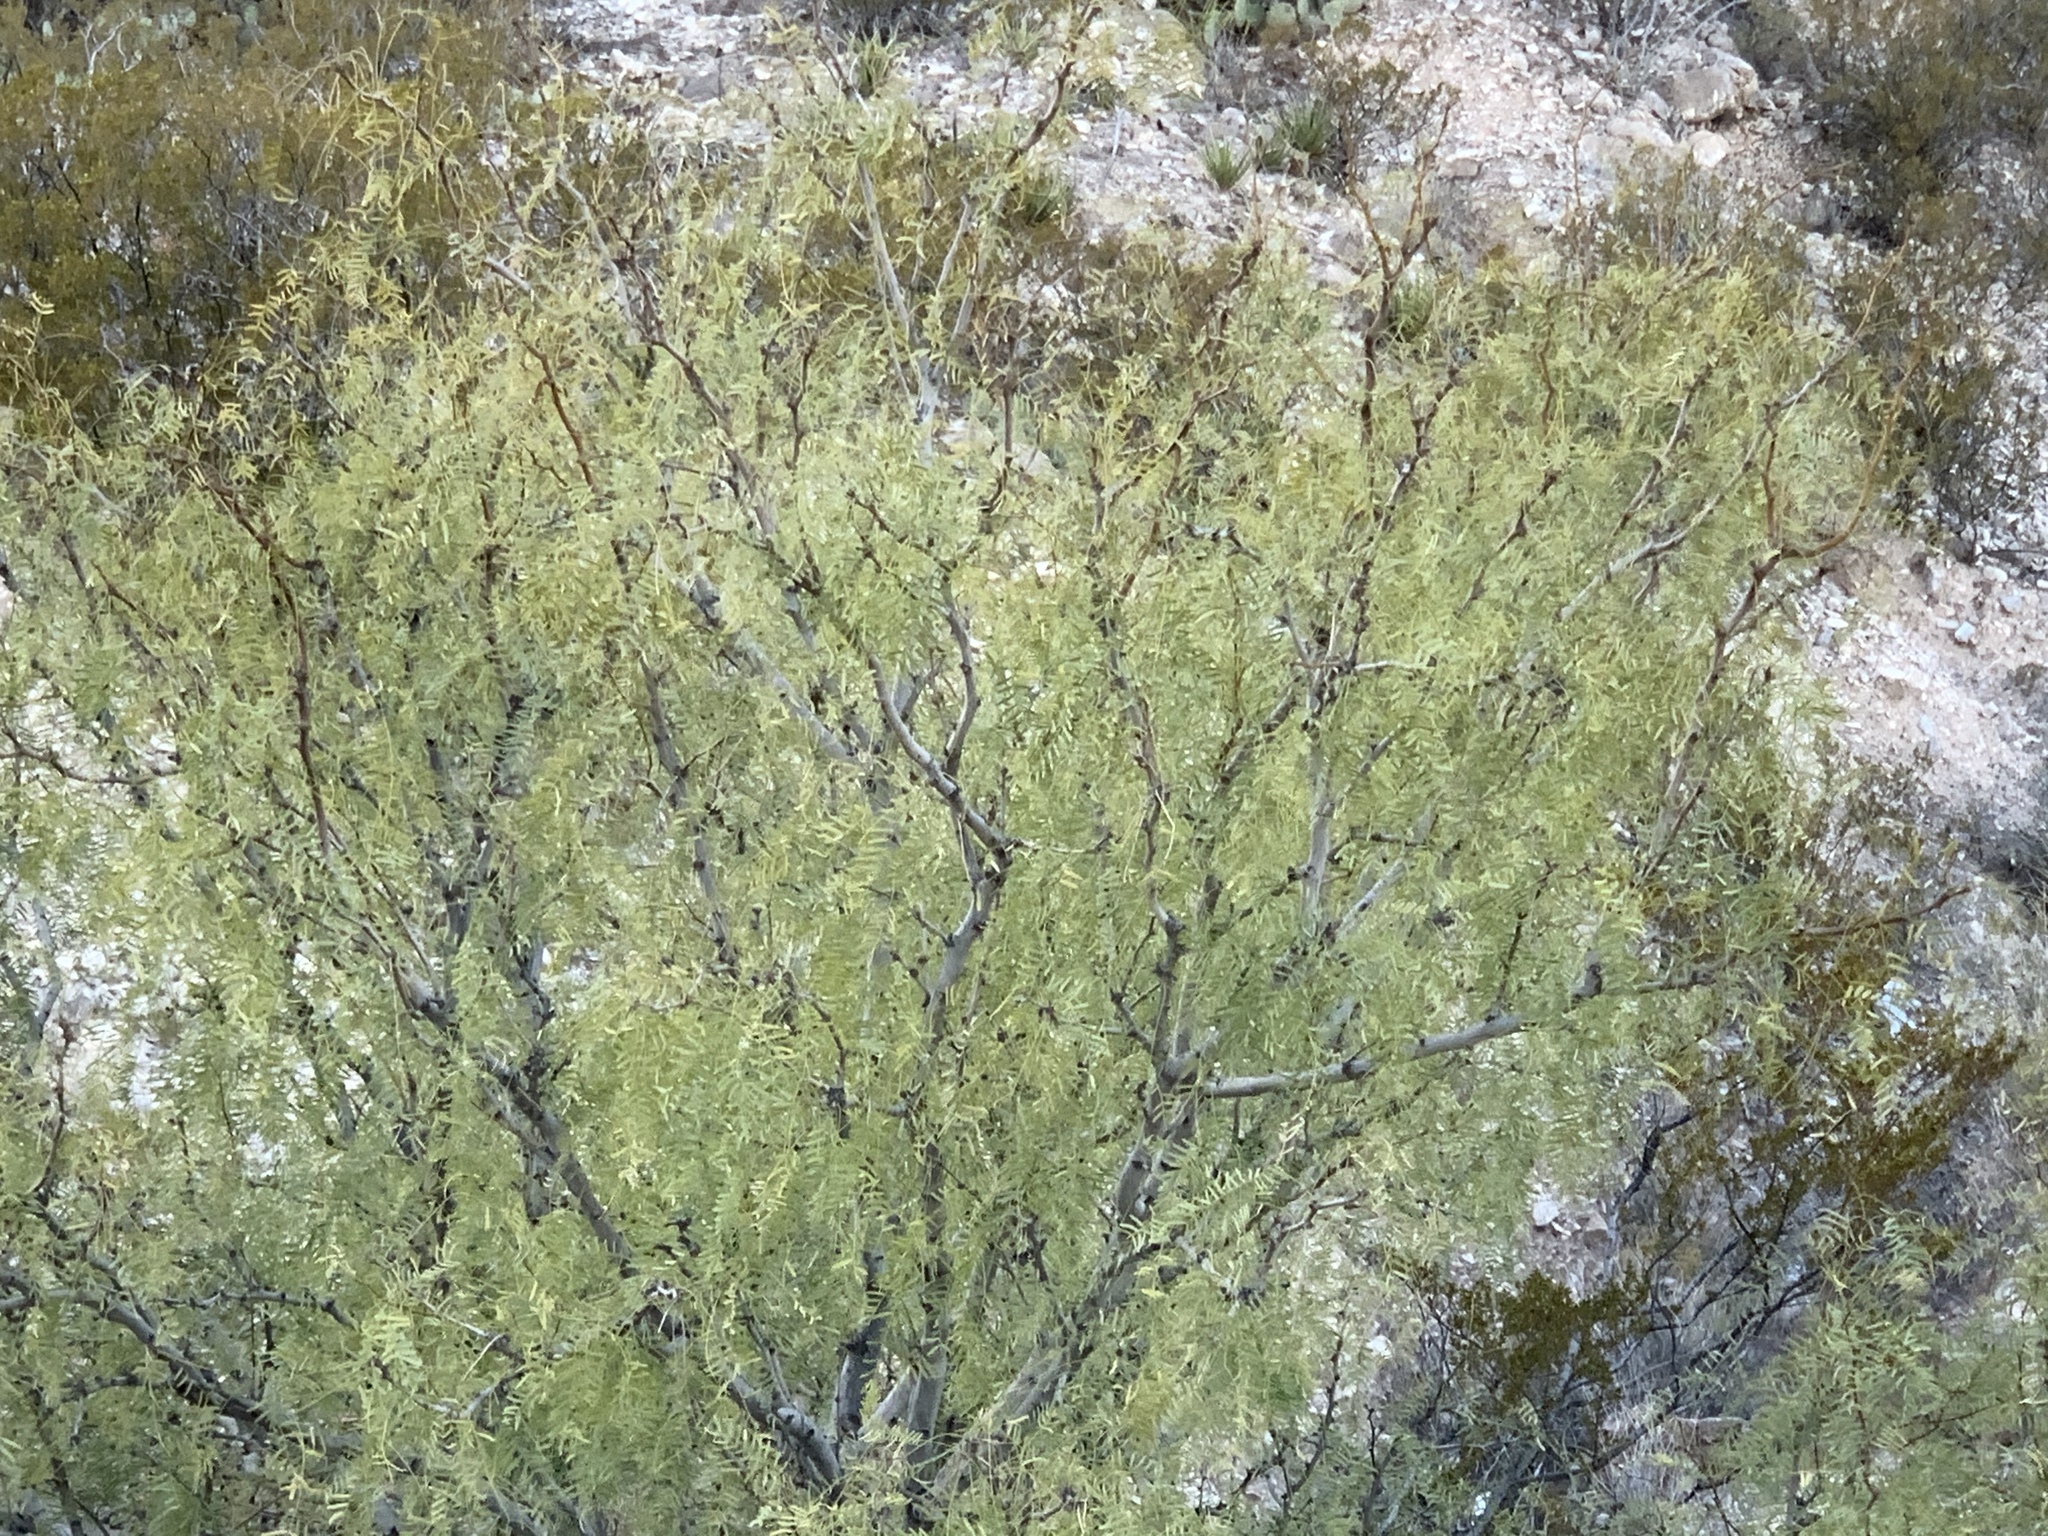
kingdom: Plantae
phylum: Tracheophyta
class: Magnoliopsida
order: Fabales
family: Fabaceae
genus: Prosopis
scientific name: Prosopis glandulosa
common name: Honey mesquite
